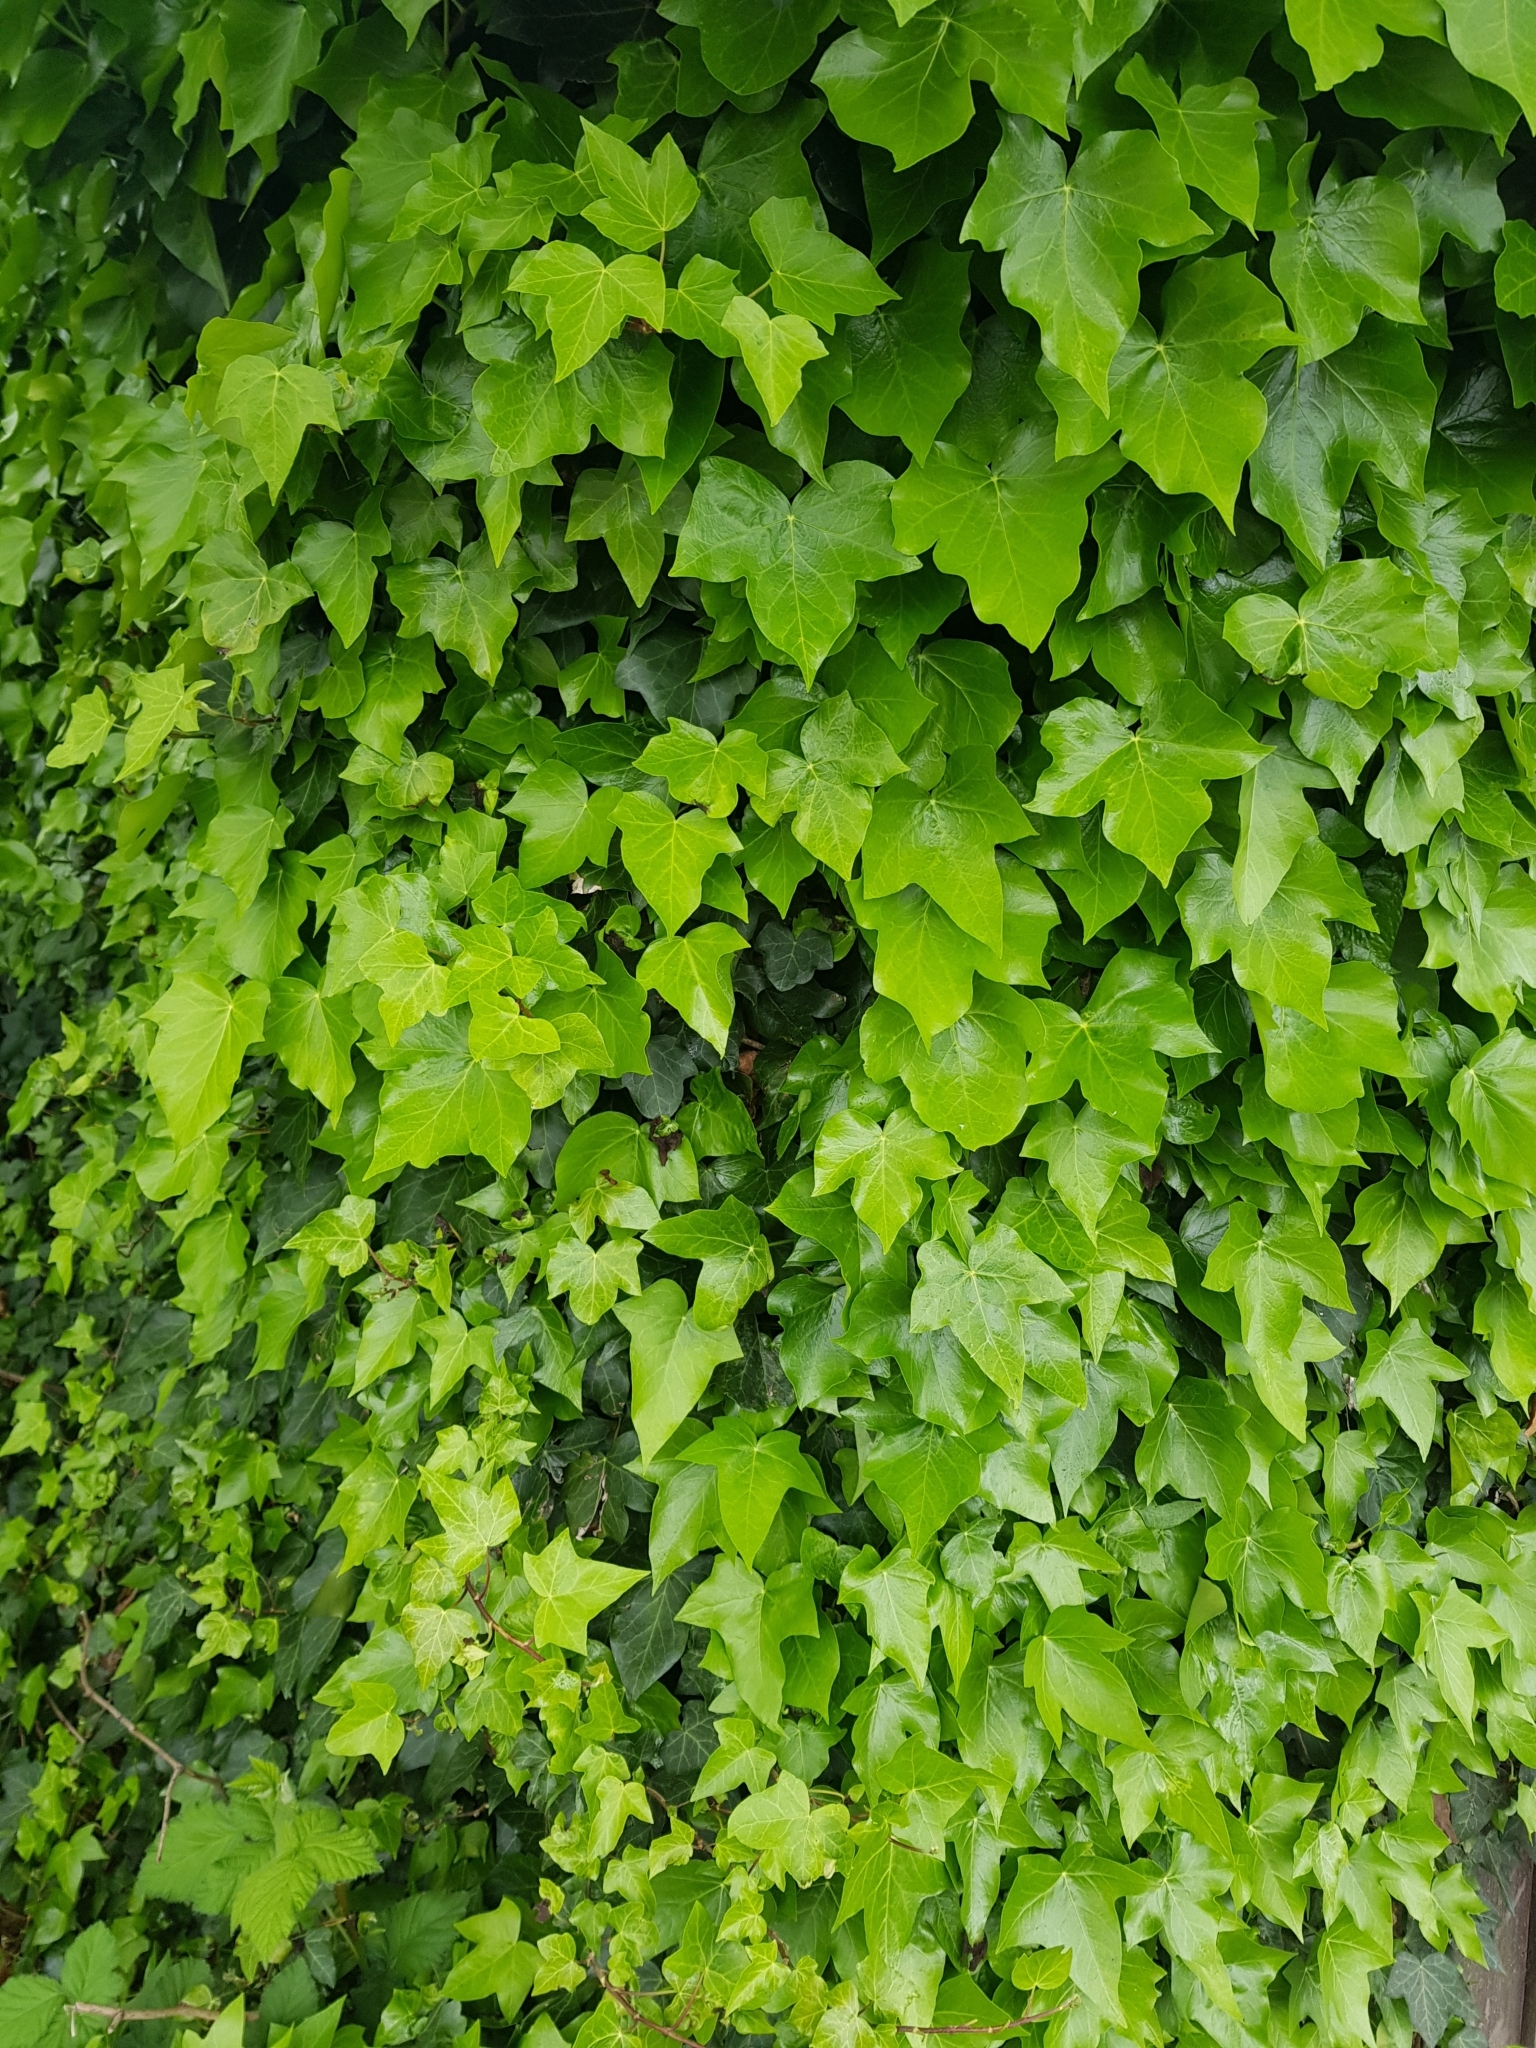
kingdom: Plantae
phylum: Tracheophyta
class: Magnoliopsida
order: Apiales
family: Araliaceae
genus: Hedera
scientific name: Hedera helix
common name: Ivy
